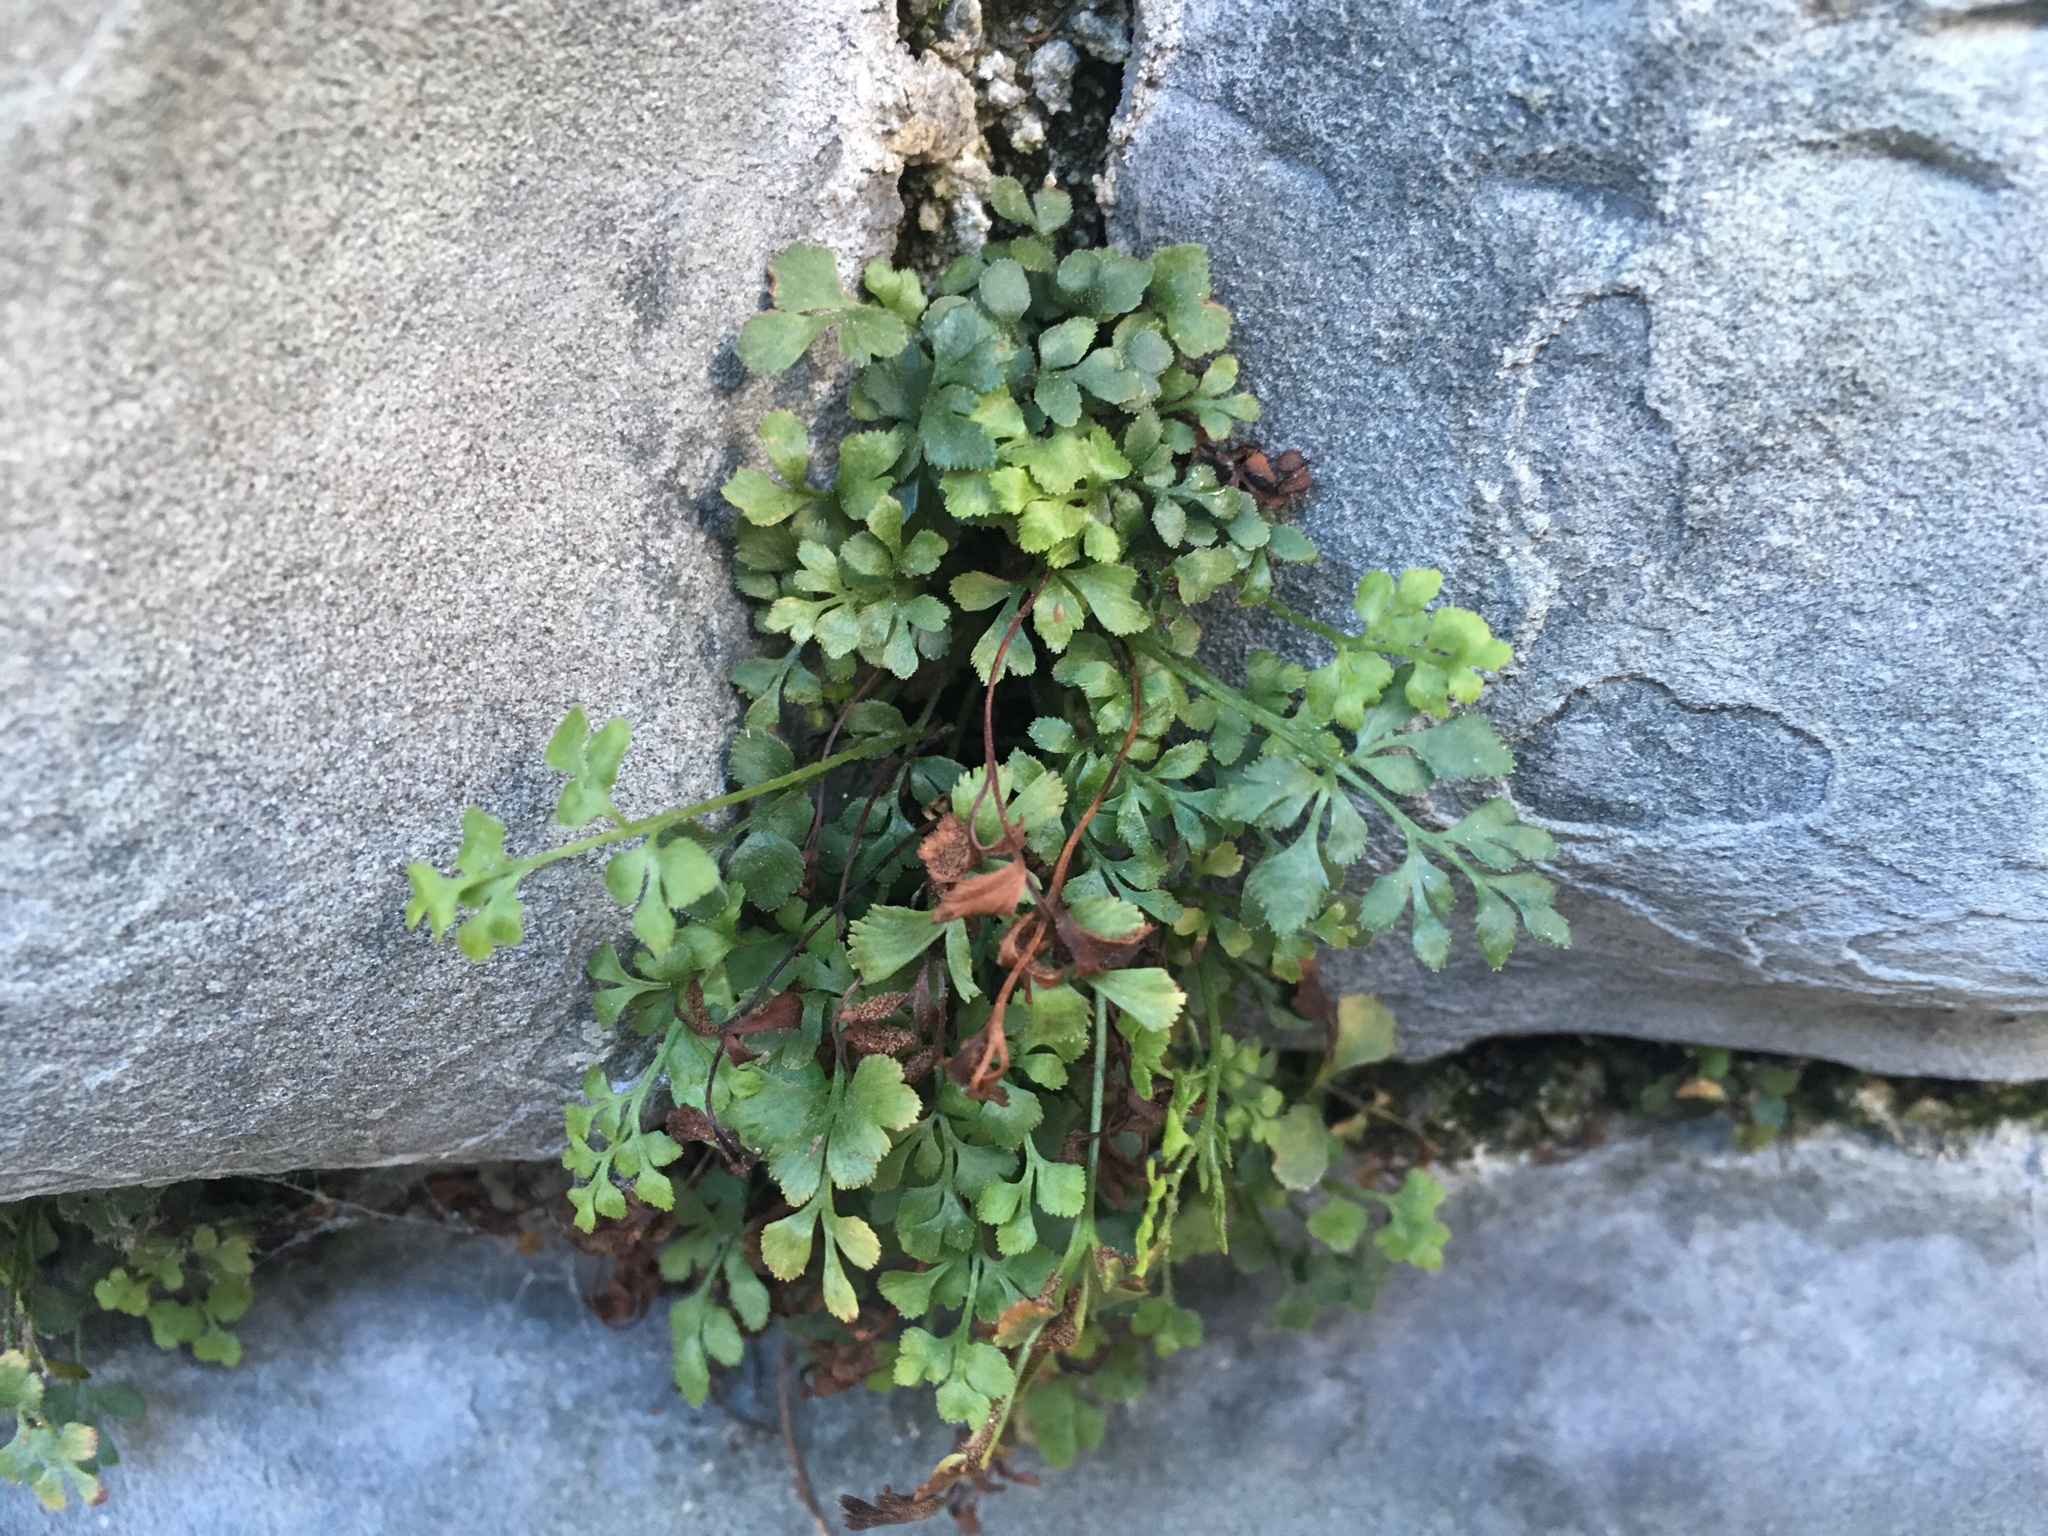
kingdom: Plantae
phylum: Tracheophyta
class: Polypodiopsida
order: Polypodiales
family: Aspleniaceae
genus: Asplenium
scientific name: Asplenium ruta-muraria
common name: Wall-rue
